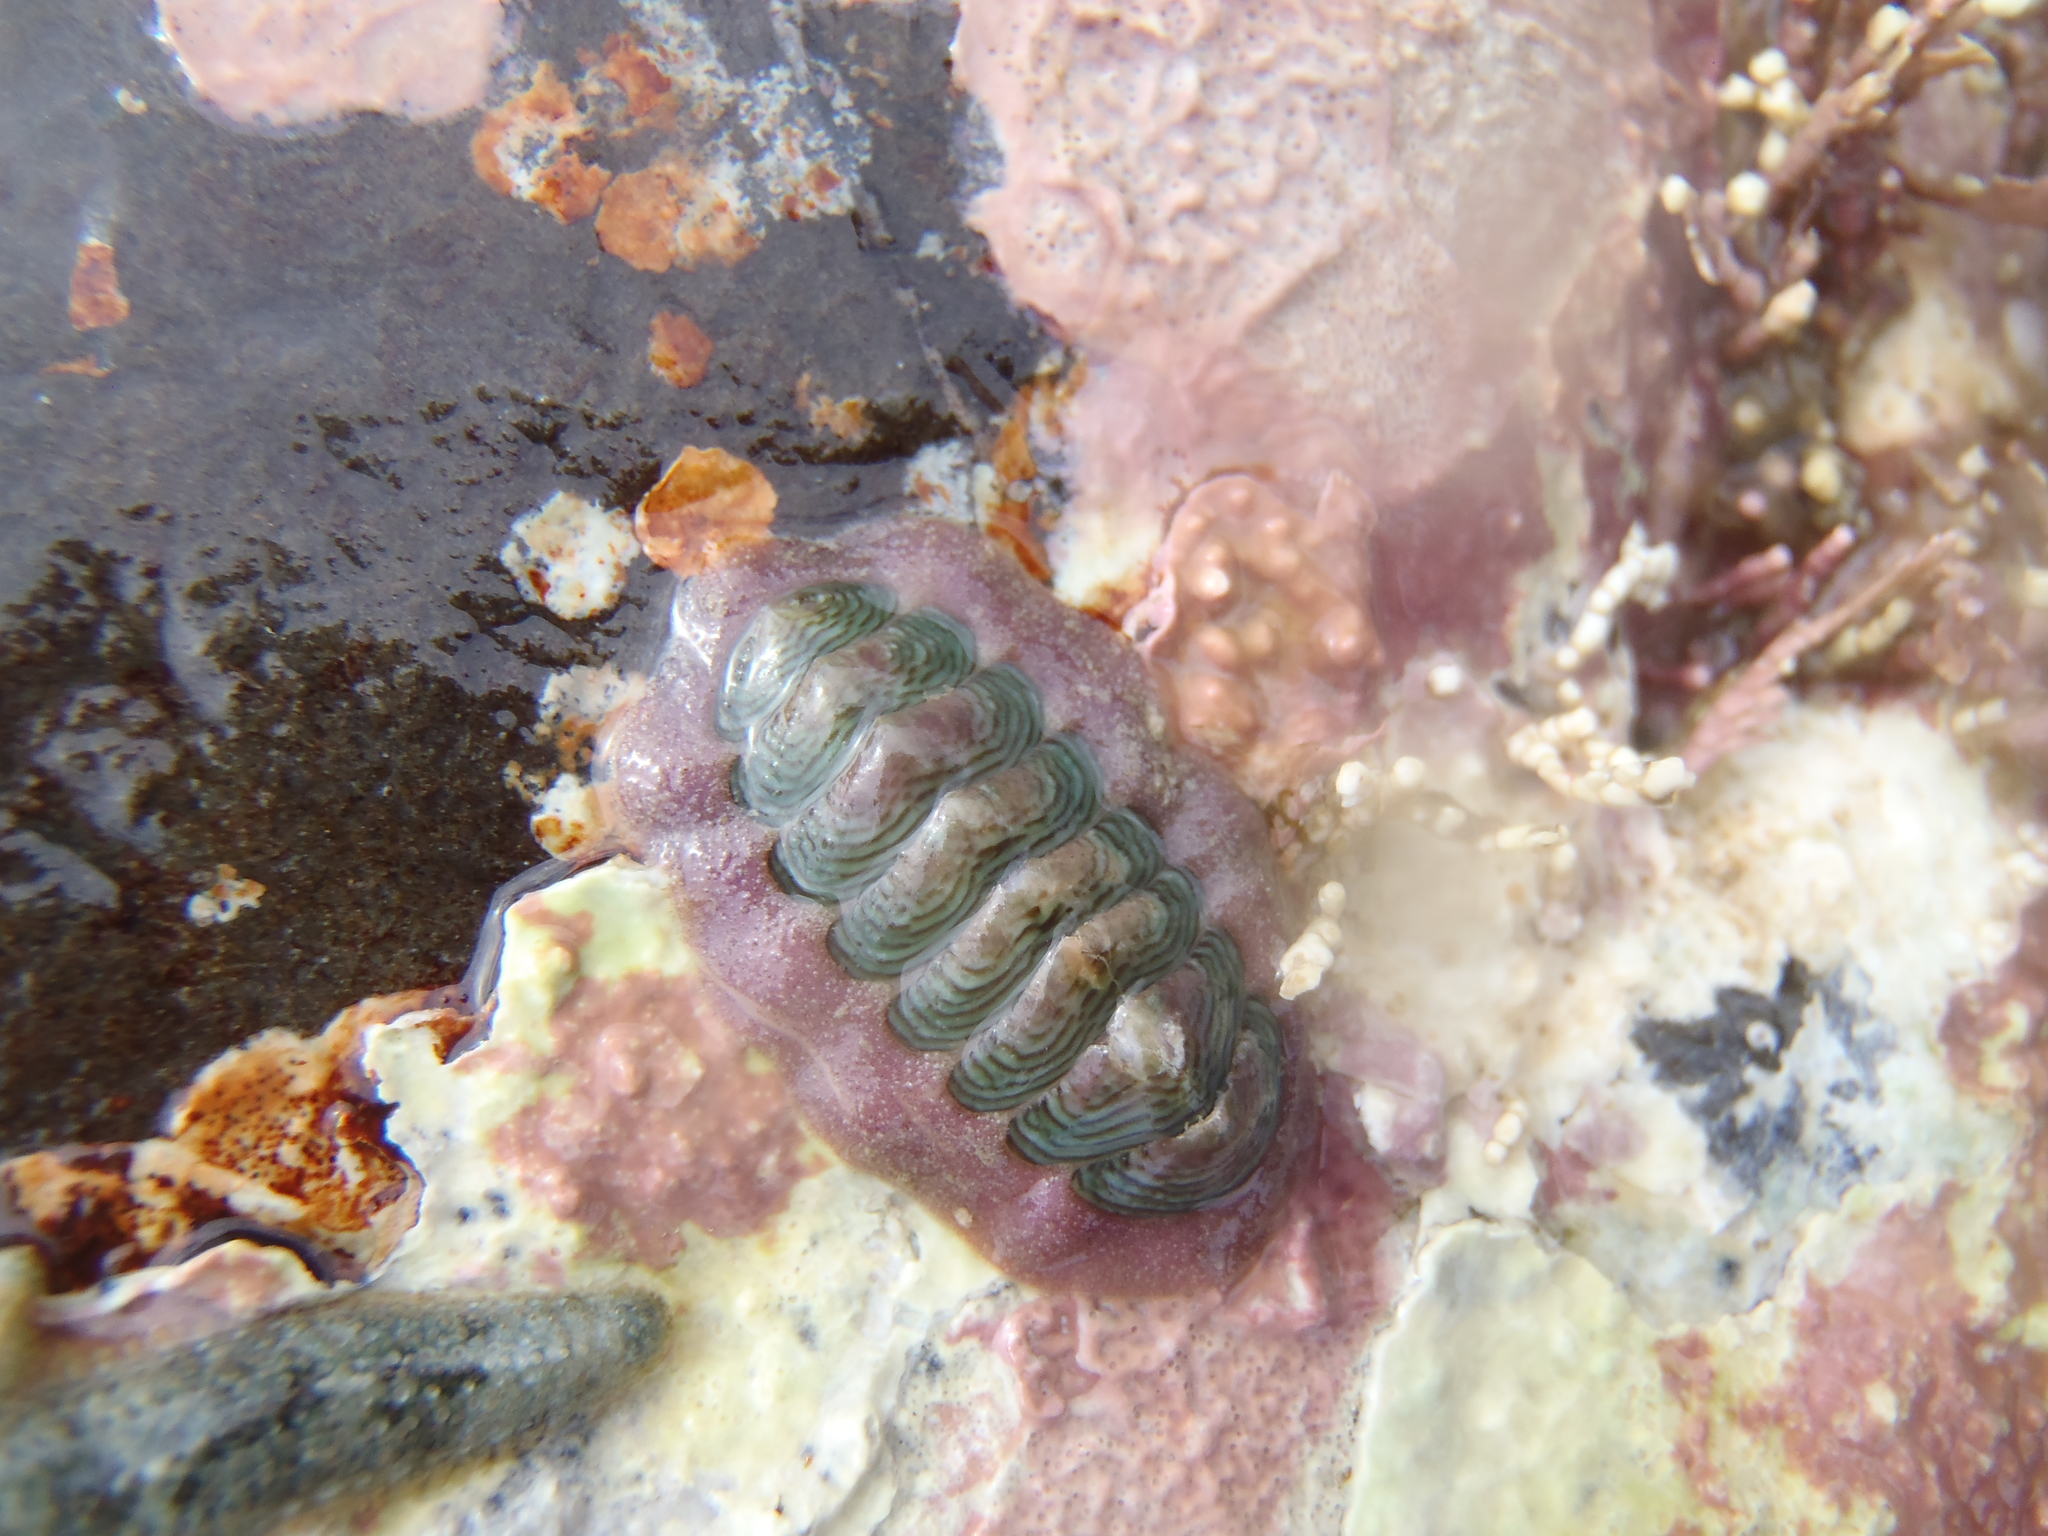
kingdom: Animalia
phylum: Mollusca
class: Polyplacophora
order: Chitonida
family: Chitonidae
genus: Onithochiton
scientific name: Onithochiton neglectus
